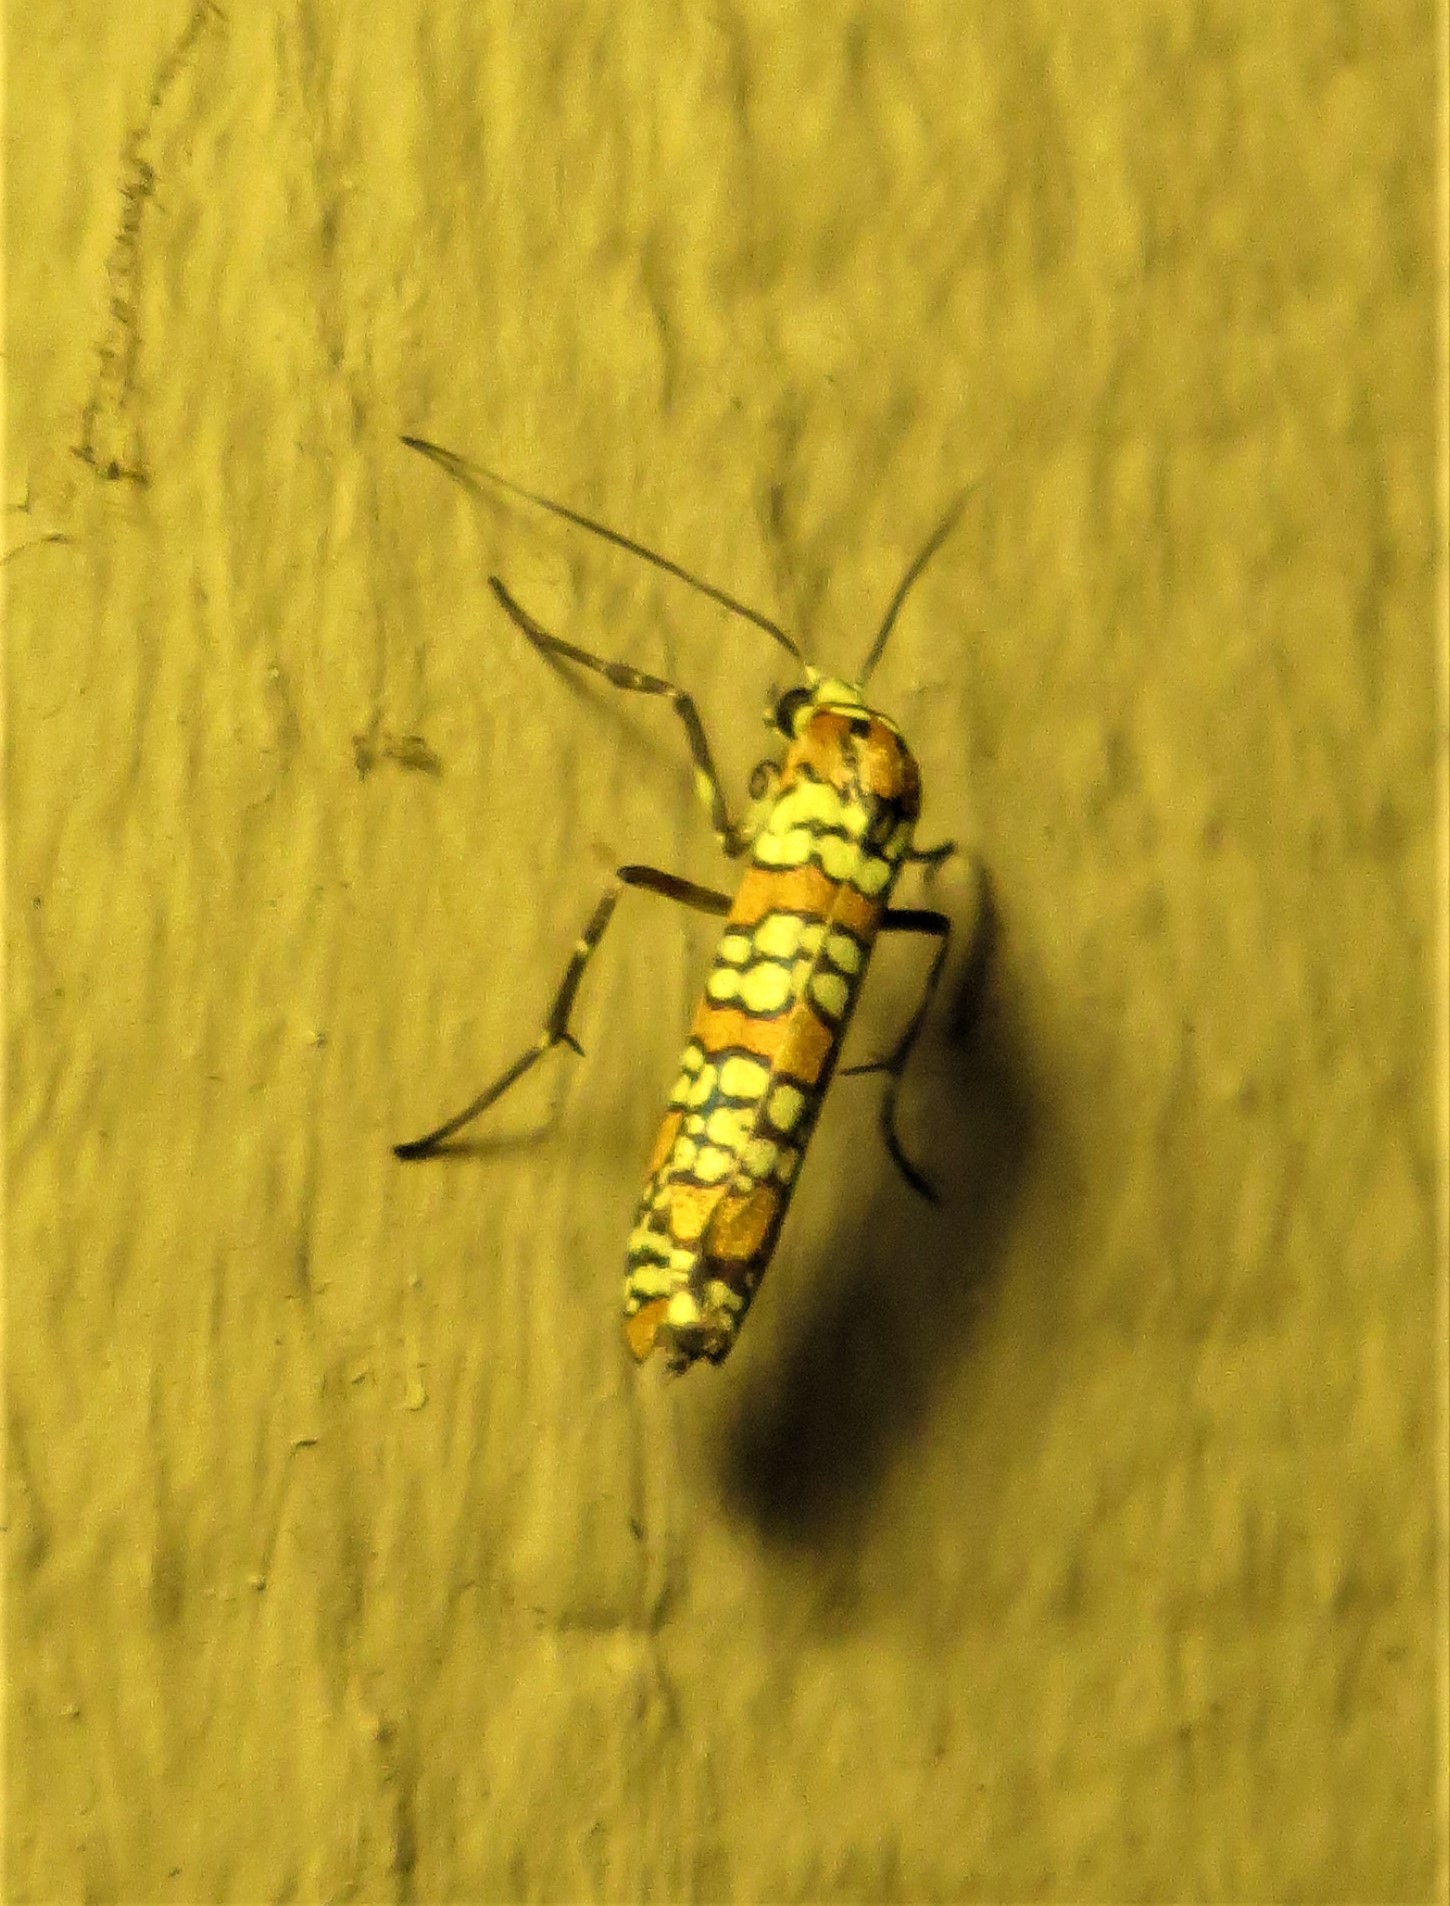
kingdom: Animalia
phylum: Arthropoda
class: Insecta
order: Lepidoptera
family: Attevidae
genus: Atteva
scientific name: Atteva punctella
